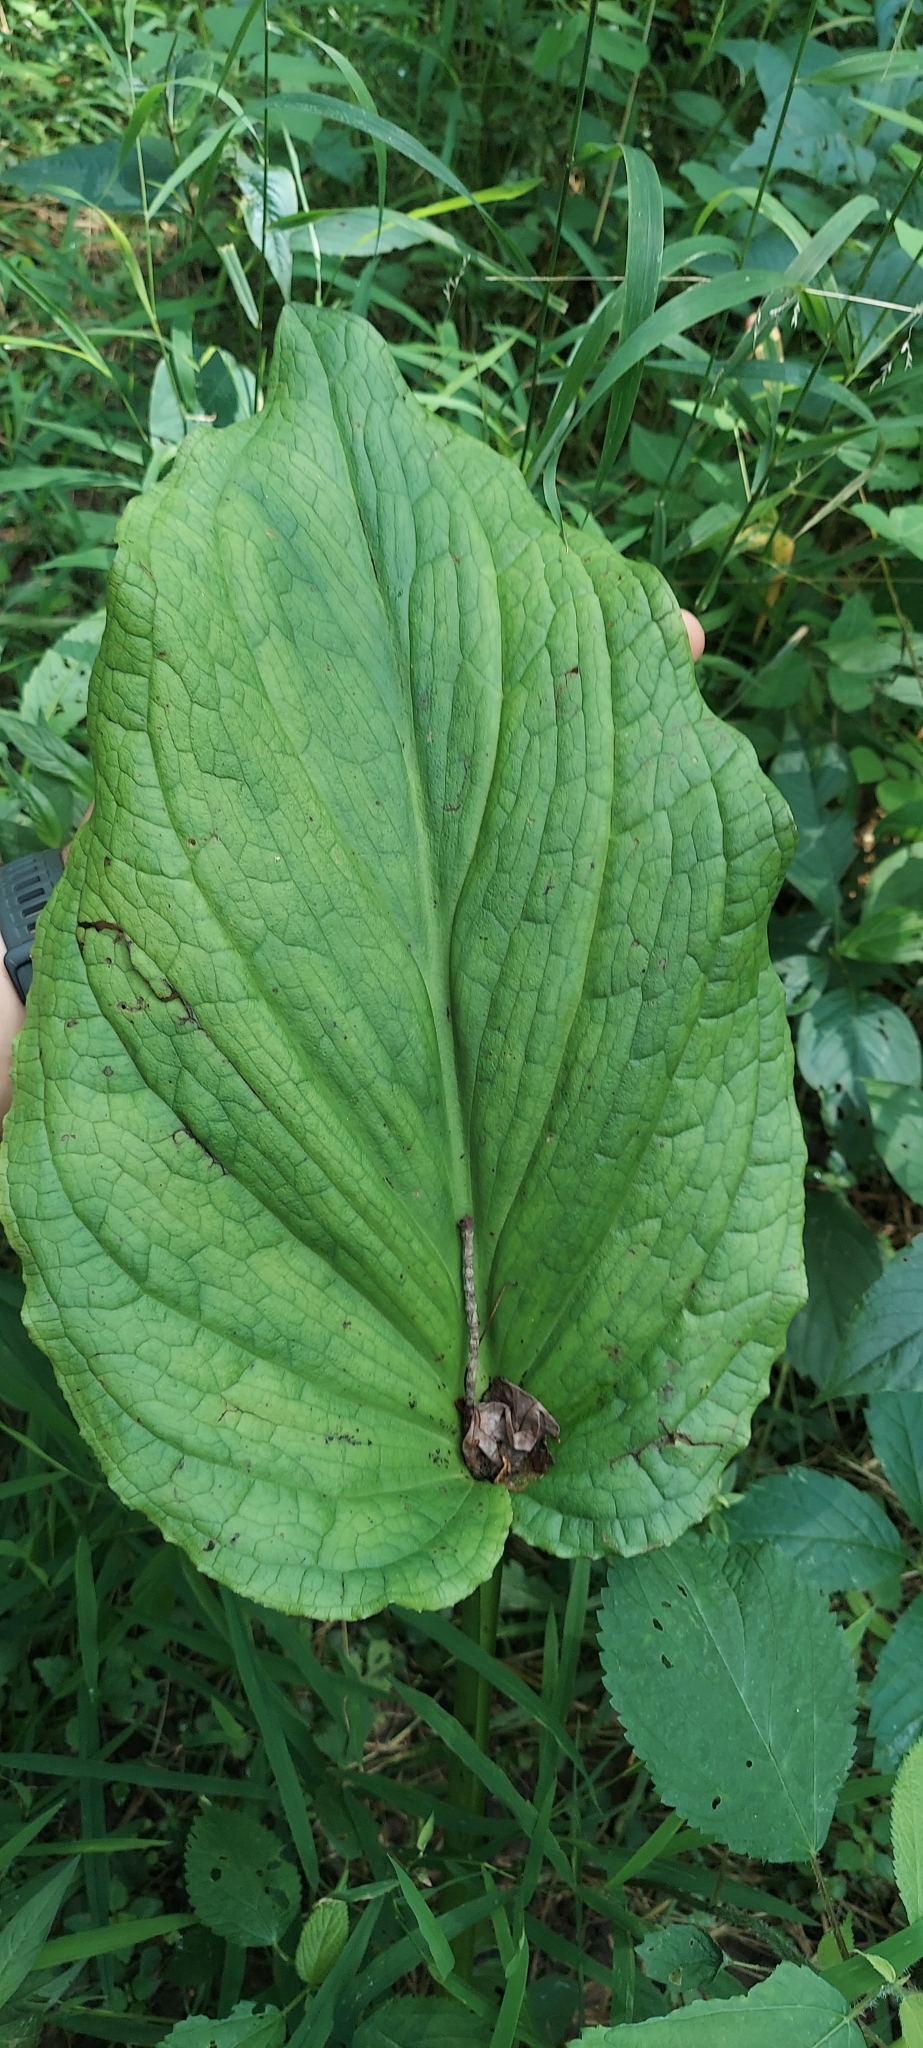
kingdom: Plantae
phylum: Tracheophyta
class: Liliopsida
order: Alismatales
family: Araceae
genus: Symplocarpus
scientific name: Symplocarpus foetidus
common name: Eastern skunk cabbage
